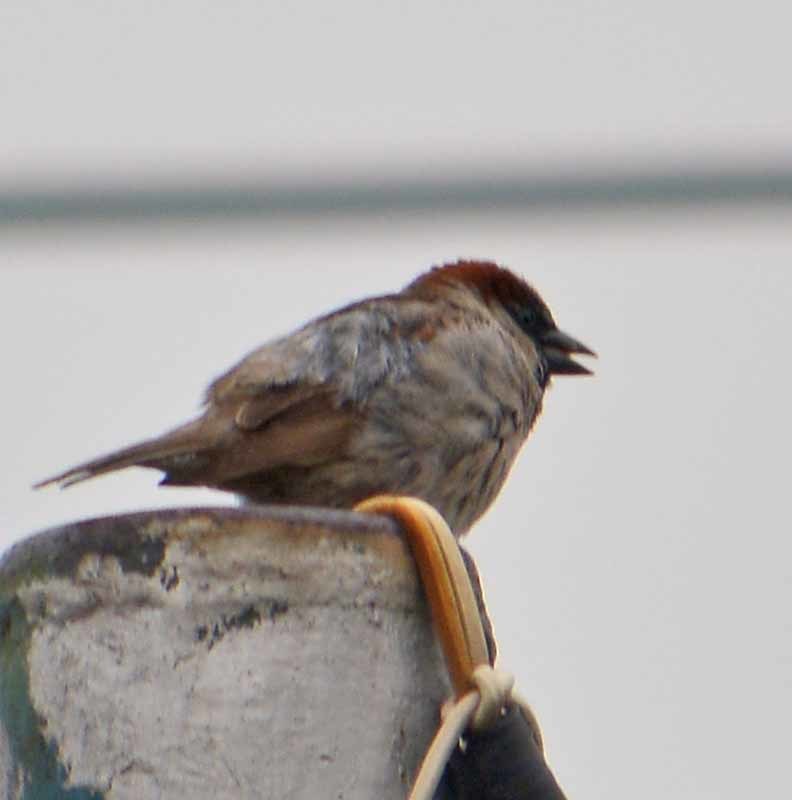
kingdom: Animalia
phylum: Chordata
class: Aves
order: Passeriformes
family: Passeridae
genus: Passer
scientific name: Passer domesticus
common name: House sparrow
